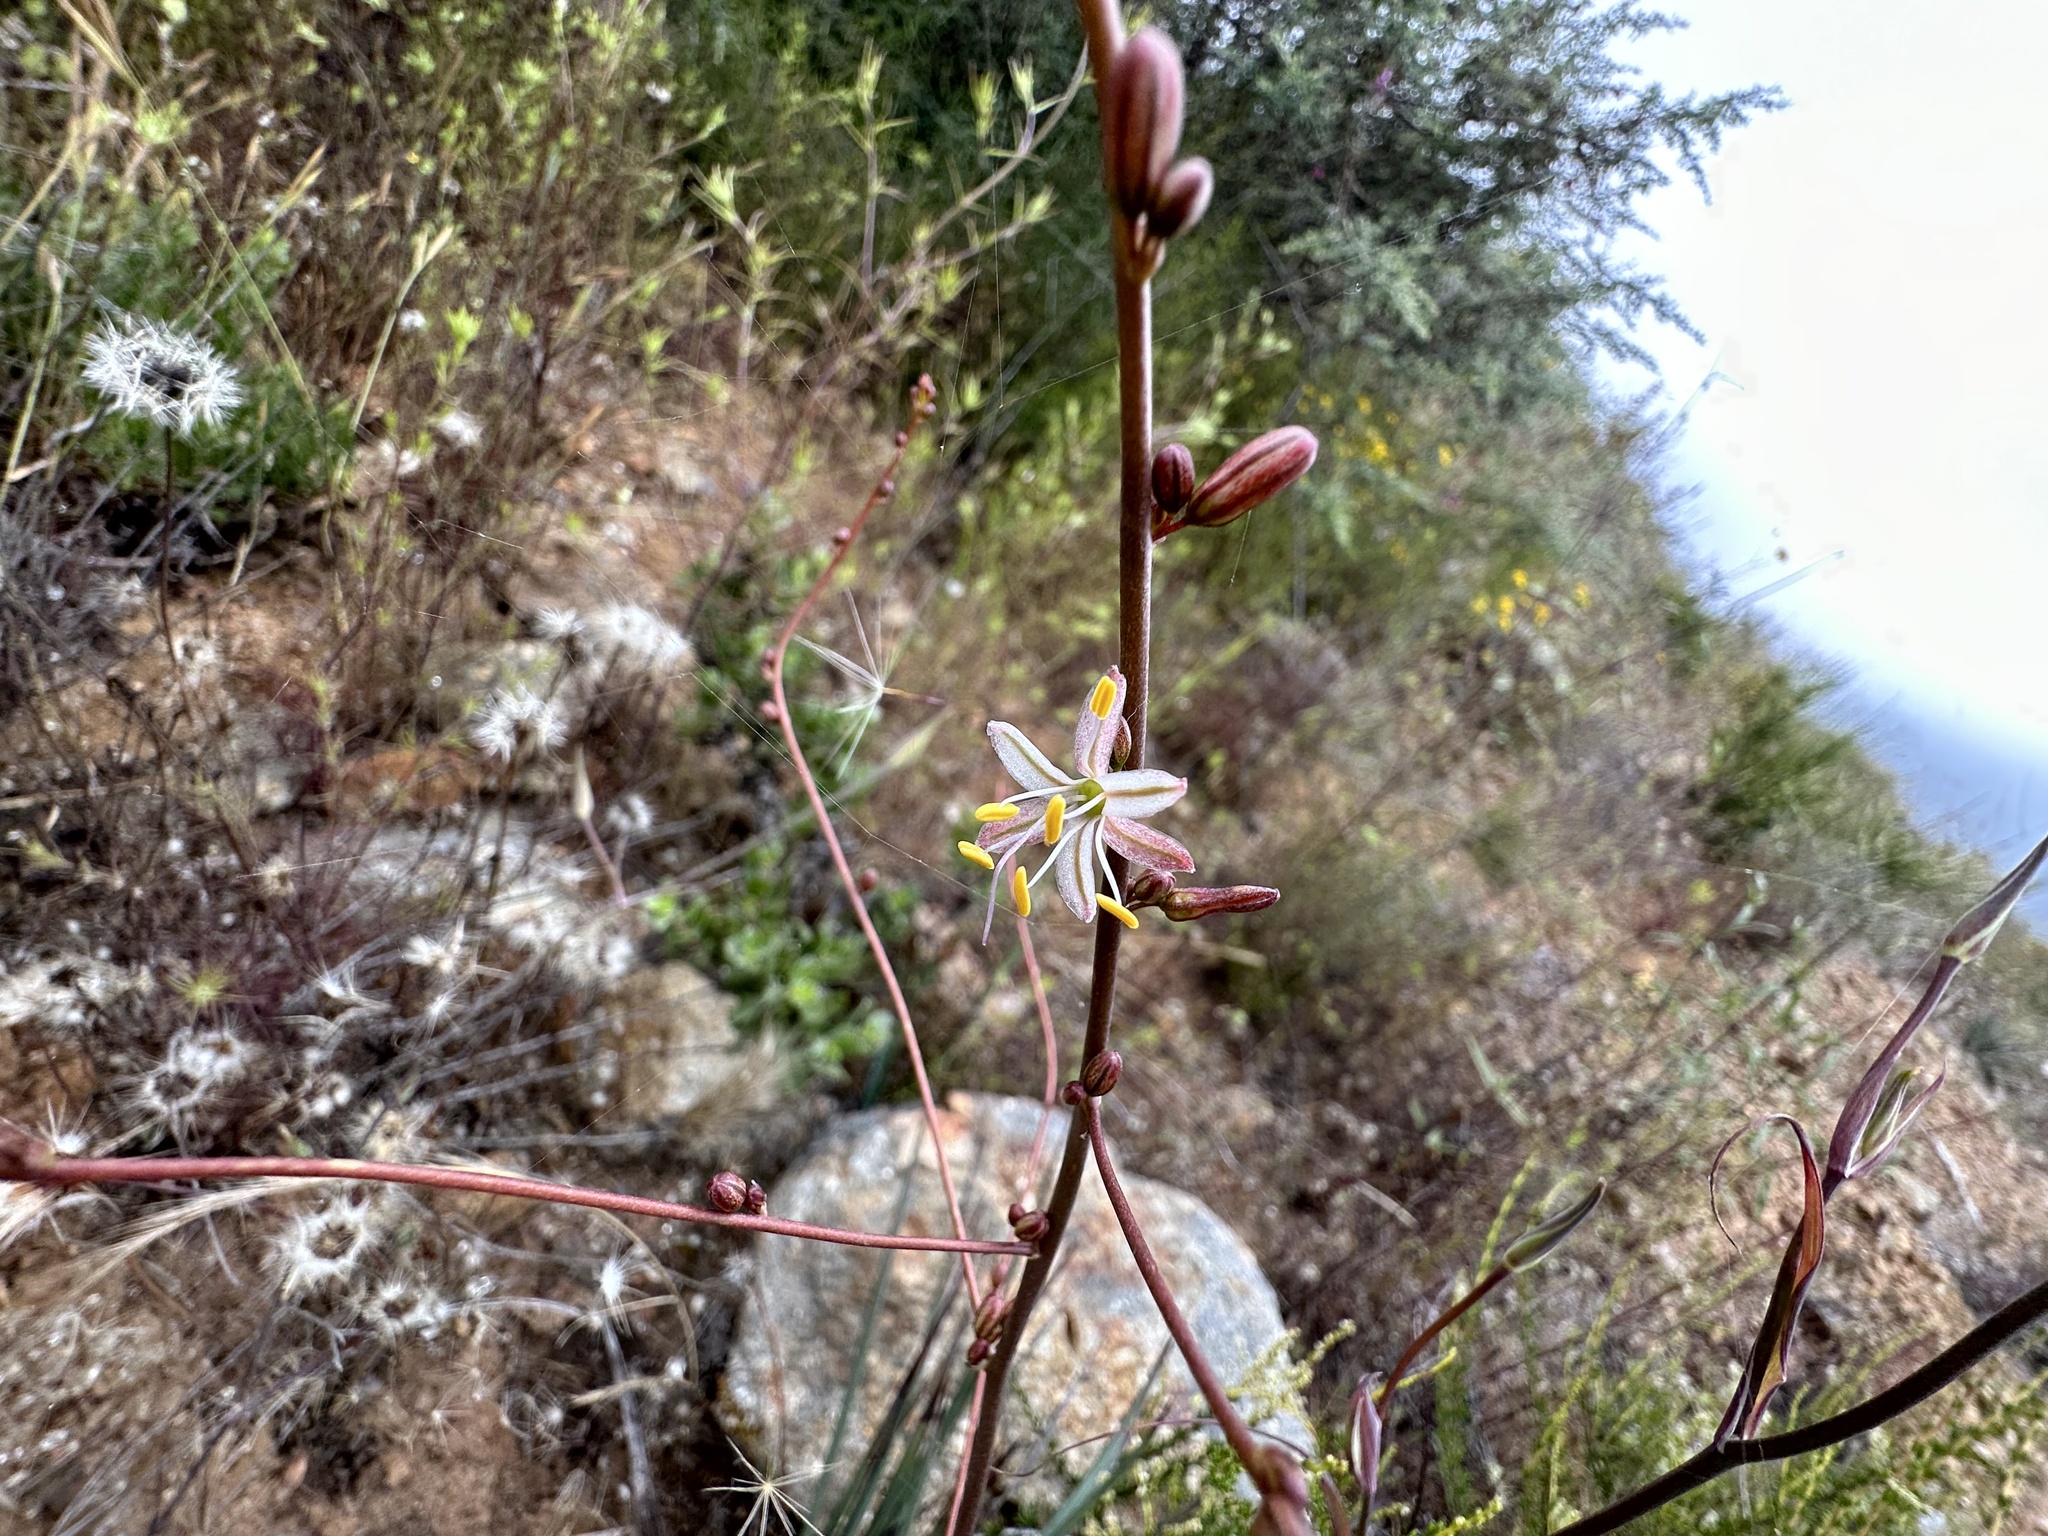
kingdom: Plantae
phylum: Tracheophyta
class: Liliopsida
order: Asparagales
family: Asparagaceae
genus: Hooveria
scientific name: Hooveria parviflora
